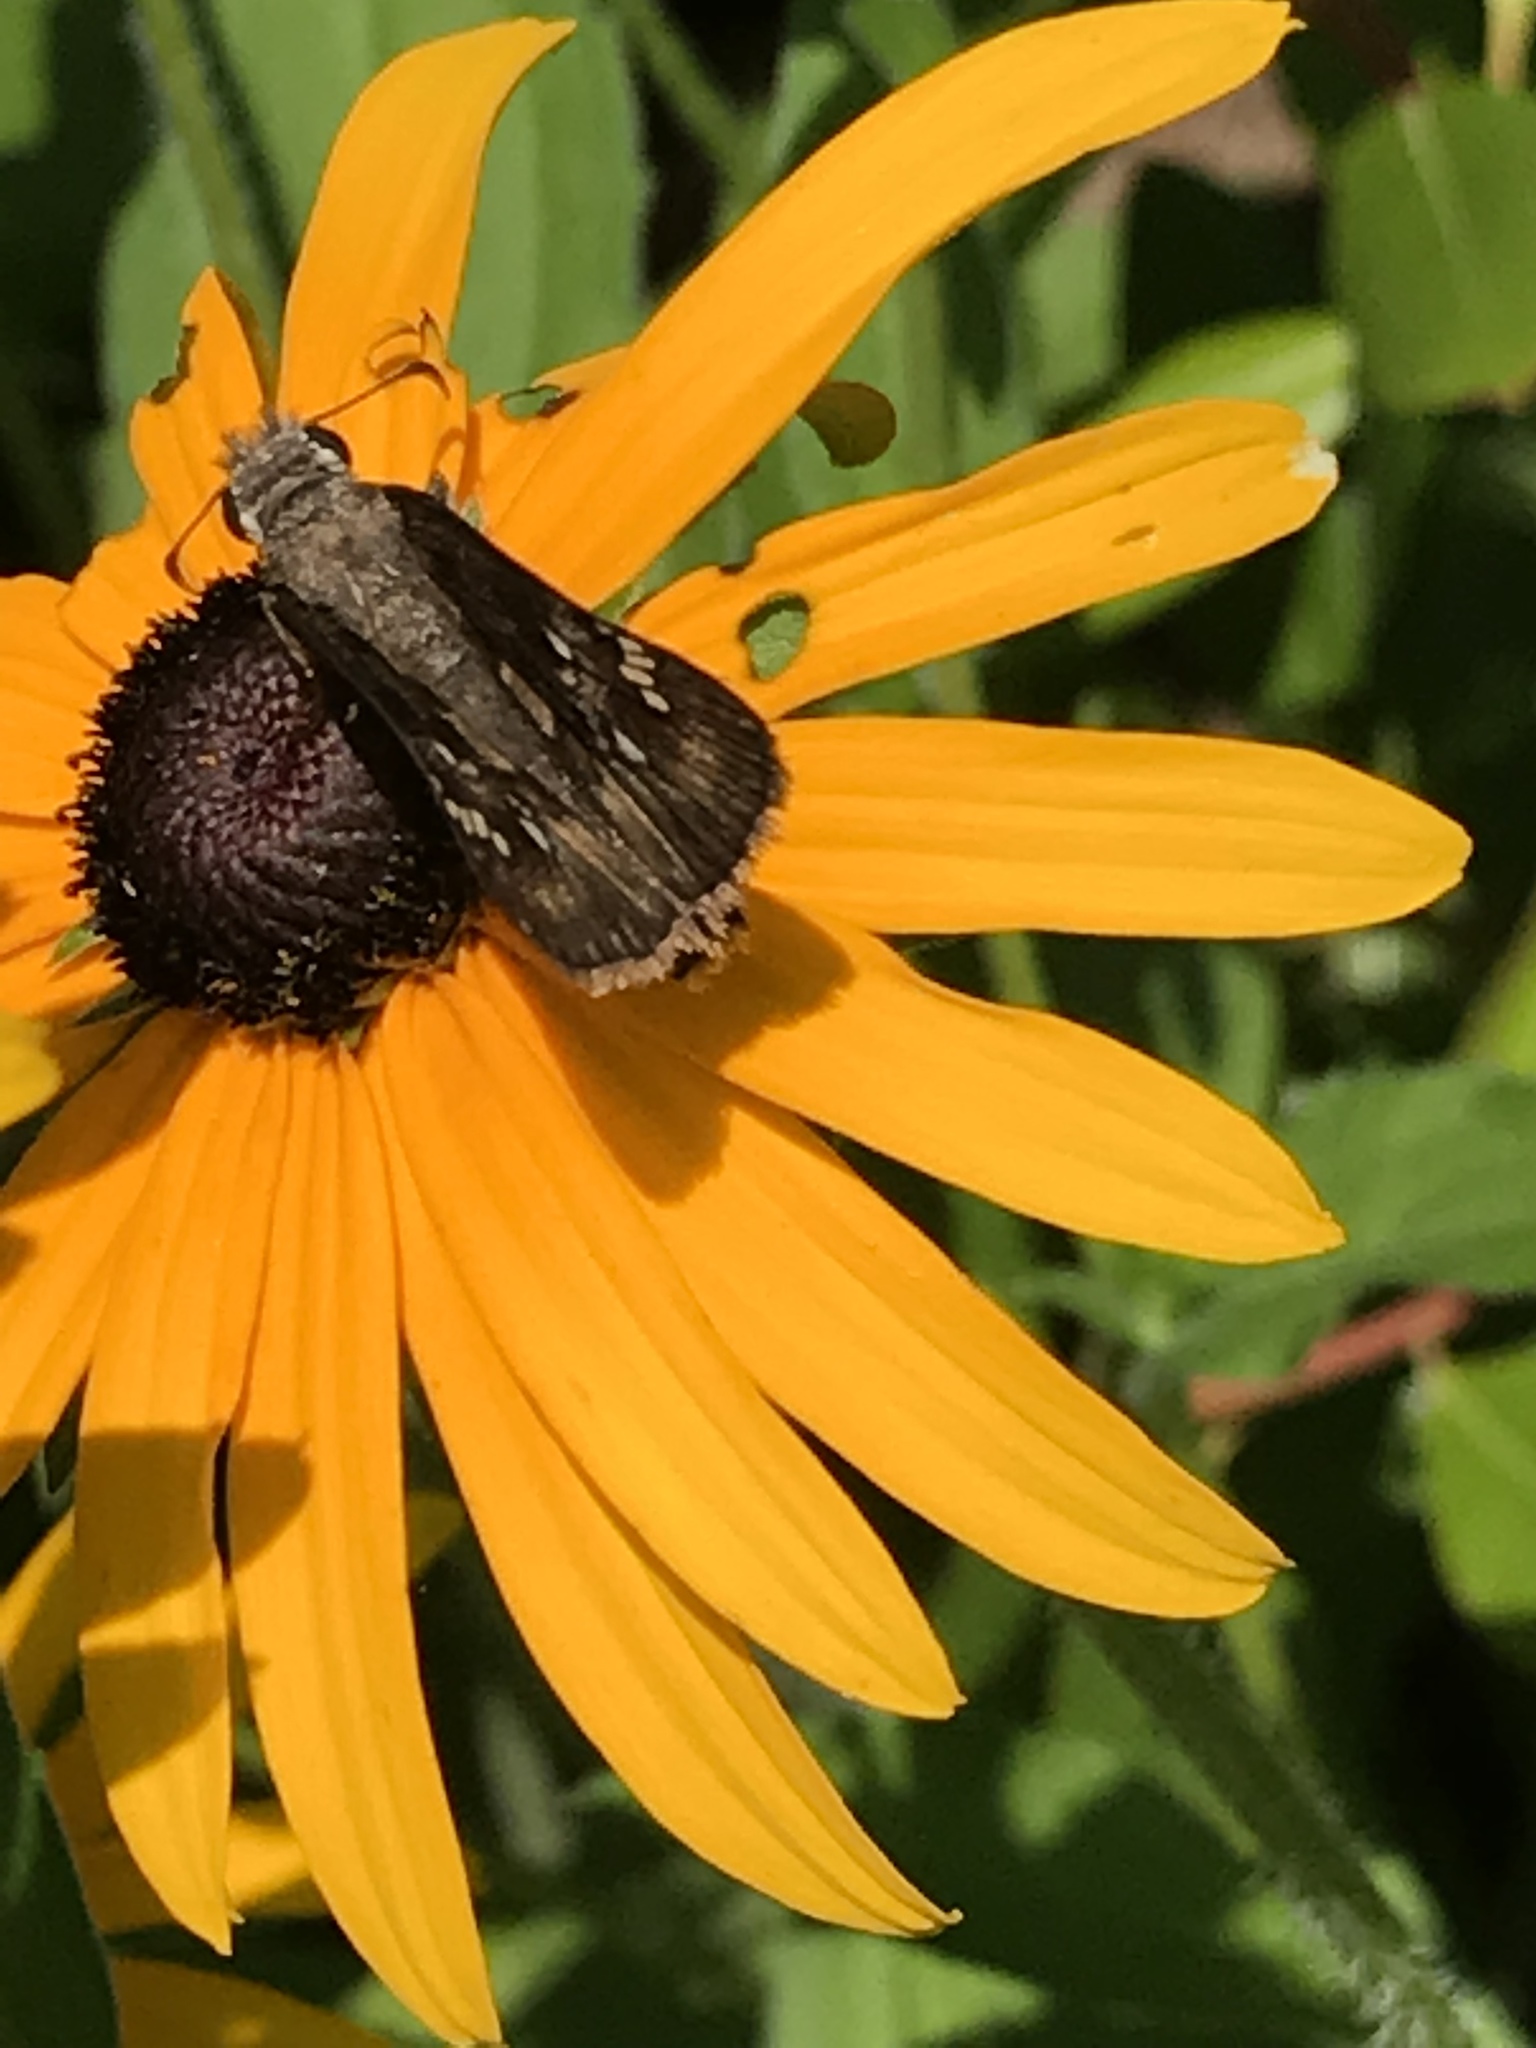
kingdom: Animalia
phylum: Arthropoda
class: Insecta
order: Lepidoptera
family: Hesperiidae
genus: Erynnis
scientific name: Erynnis horatius
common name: Horace's duskywing
